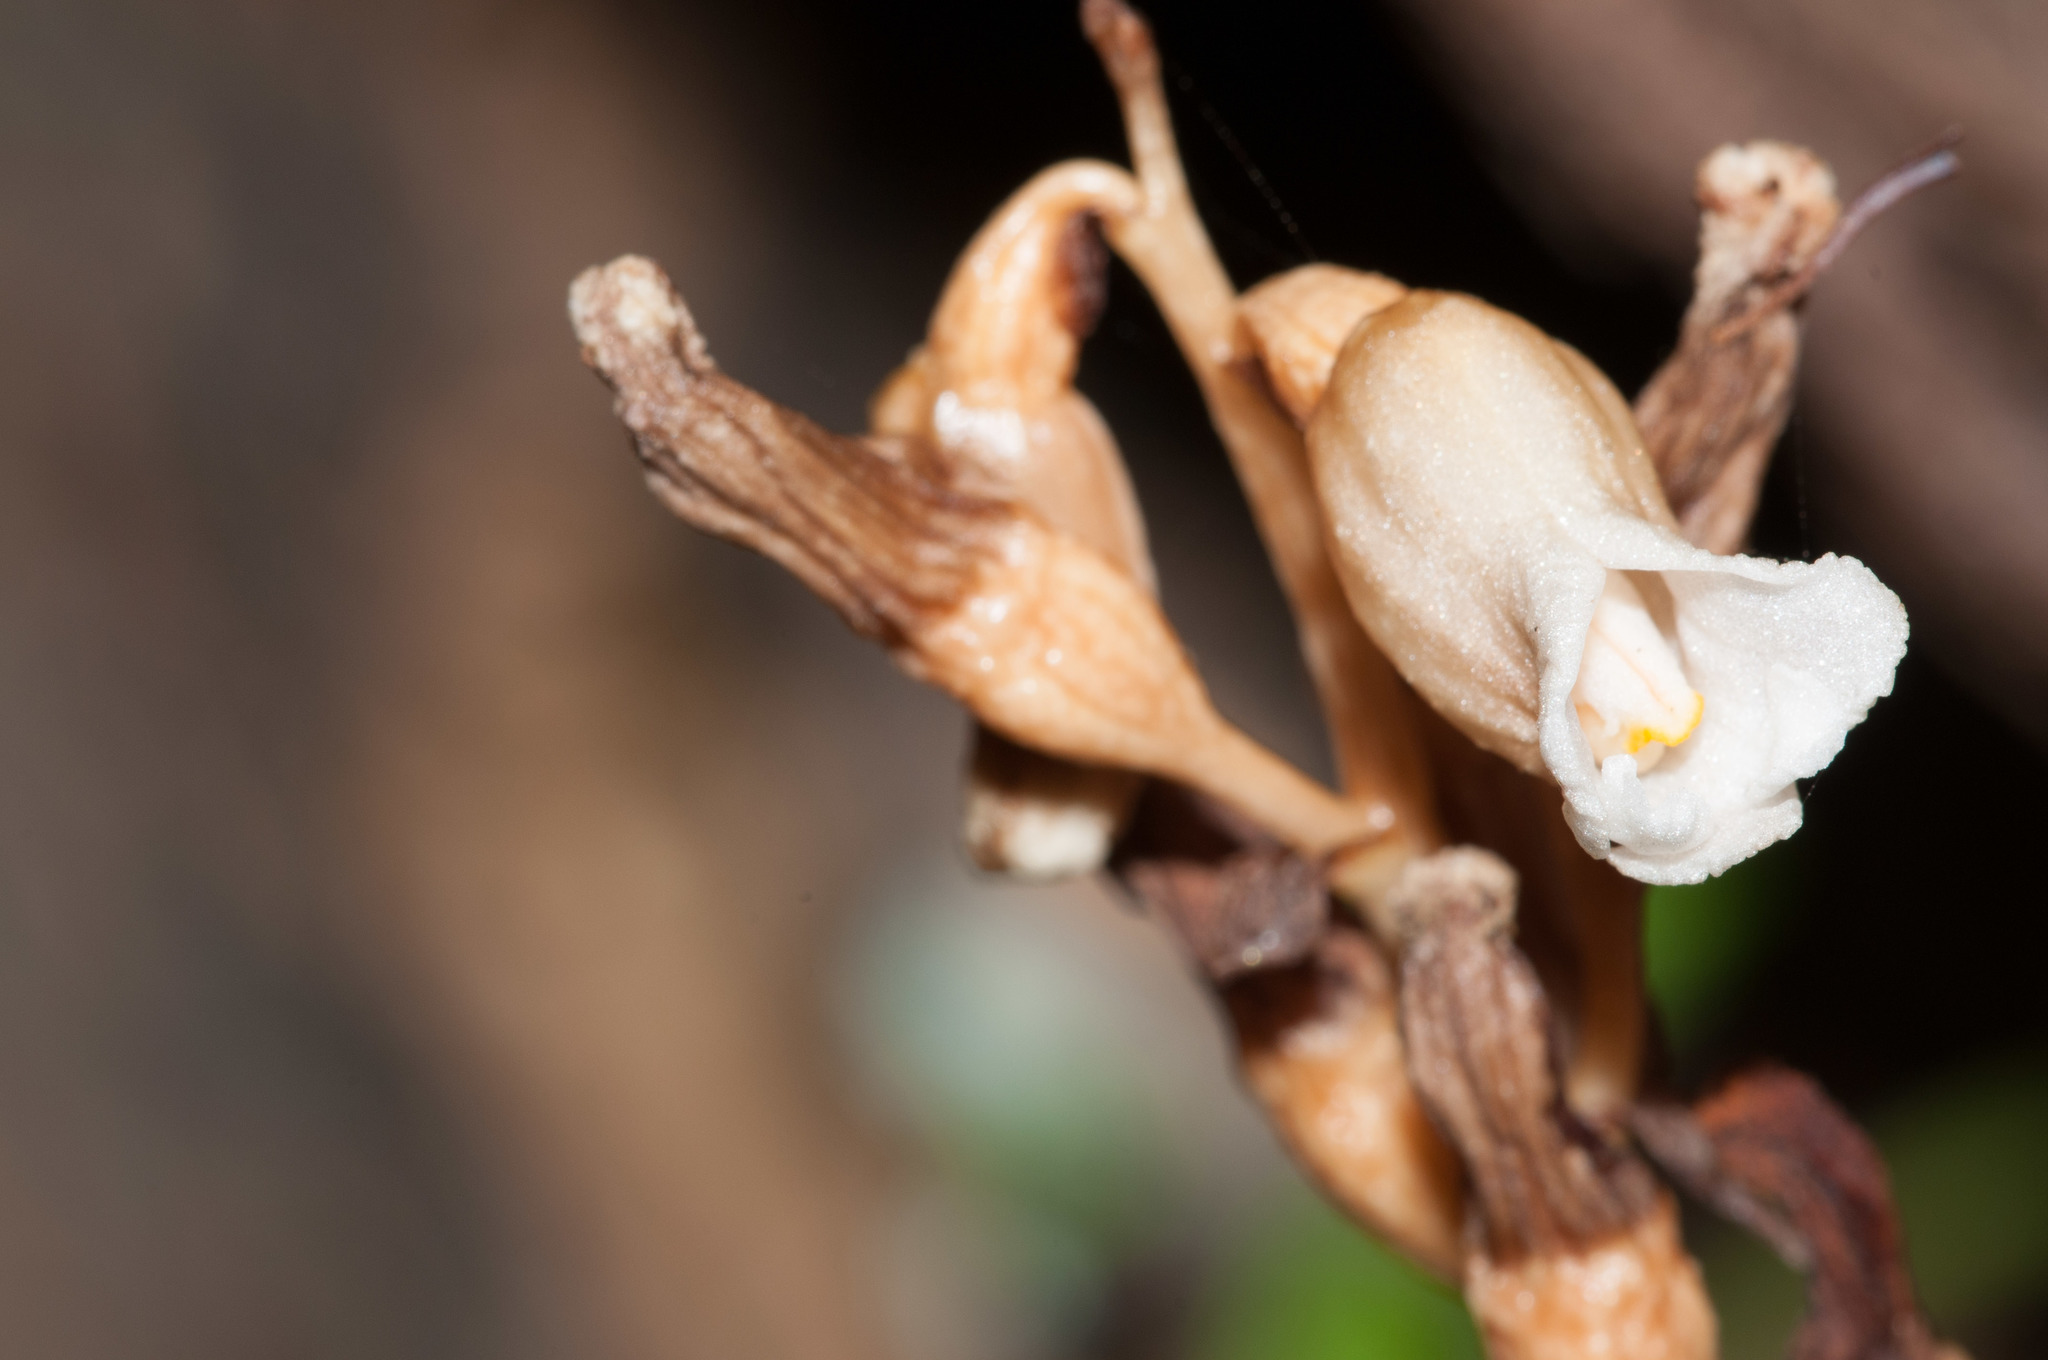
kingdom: Plantae
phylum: Tracheophyta
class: Liliopsida
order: Asparagales
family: Orchidaceae
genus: Gastrodia
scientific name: Gastrodia sesamoides
